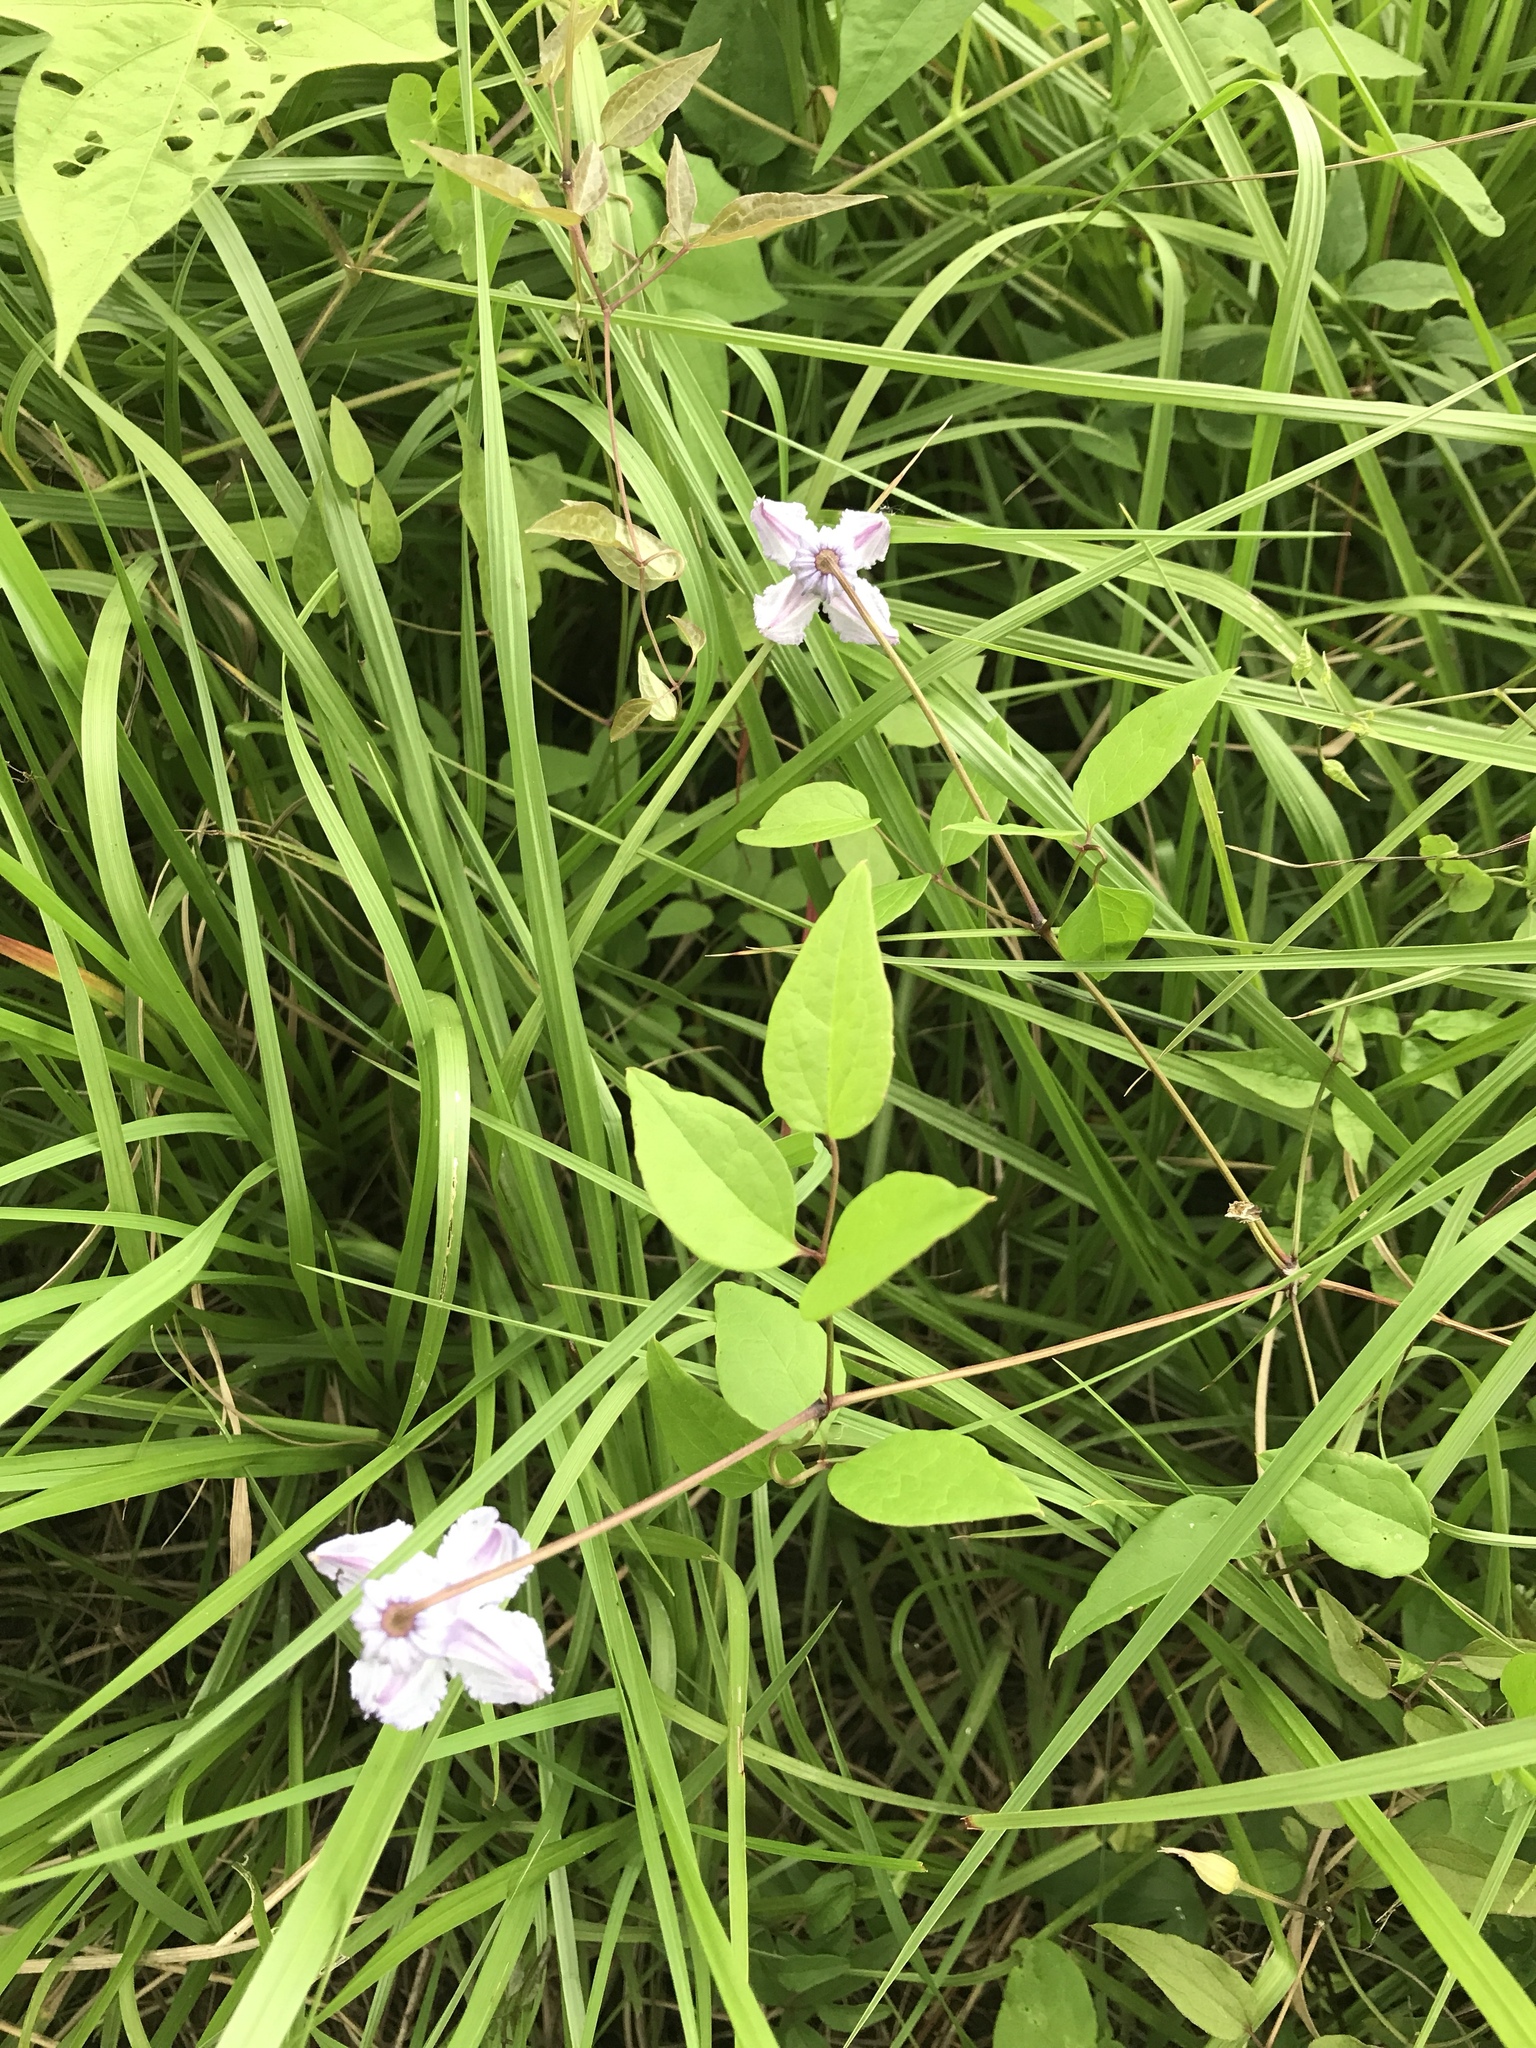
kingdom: Plantae
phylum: Tracheophyta
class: Magnoliopsida
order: Ranunculales
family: Ranunculaceae
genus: Clematis
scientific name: Clematis crispa
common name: Curly clematis
